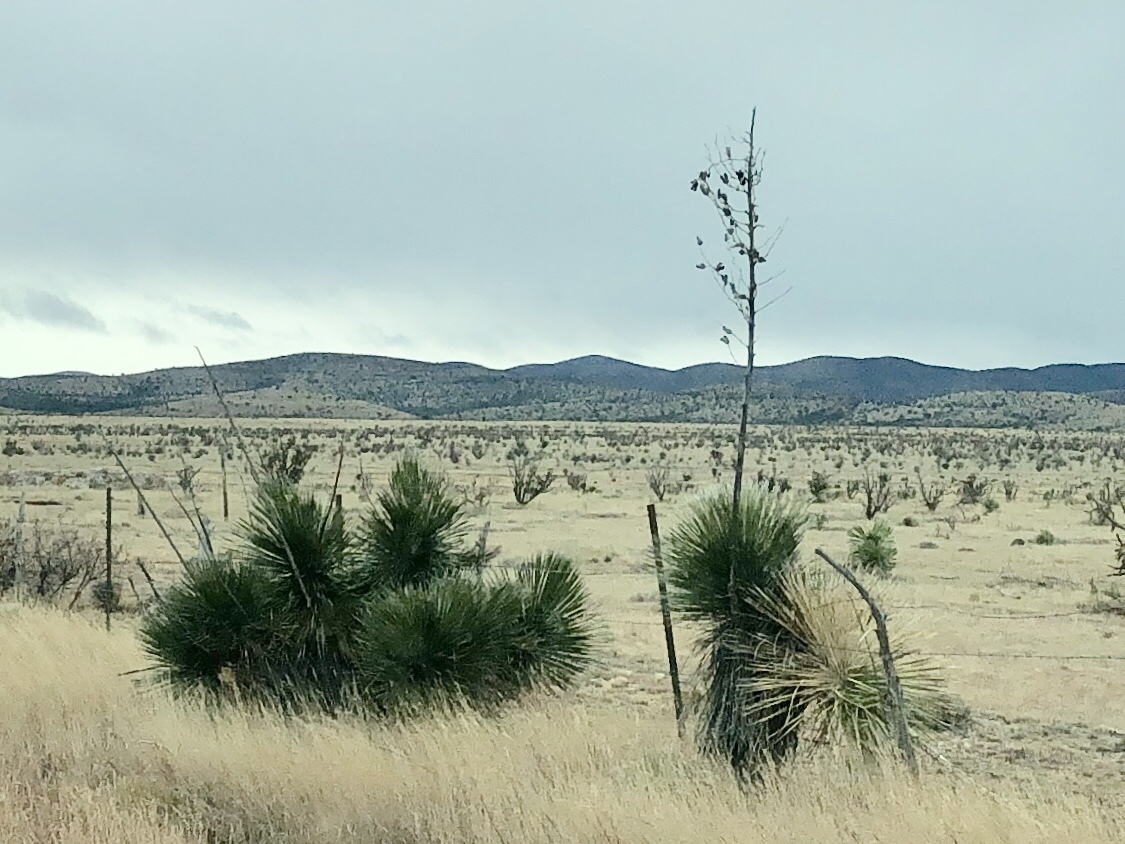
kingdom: Plantae
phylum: Tracheophyta
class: Liliopsida
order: Asparagales
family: Asparagaceae
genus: Yucca
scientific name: Yucca elata
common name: Palmella
